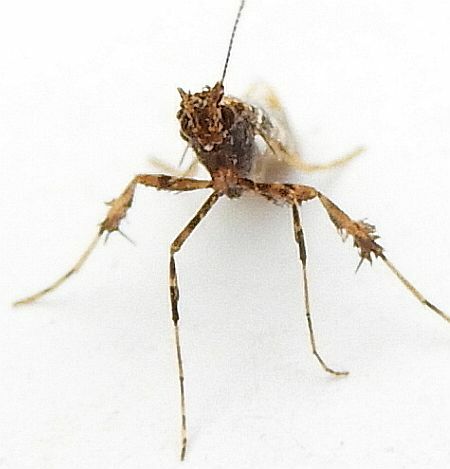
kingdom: Animalia
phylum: Arthropoda
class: Insecta
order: Lepidoptera
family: Gracillariidae
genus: Caloptilia
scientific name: Caloptilia serotinella
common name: Cherry leafroller moth
